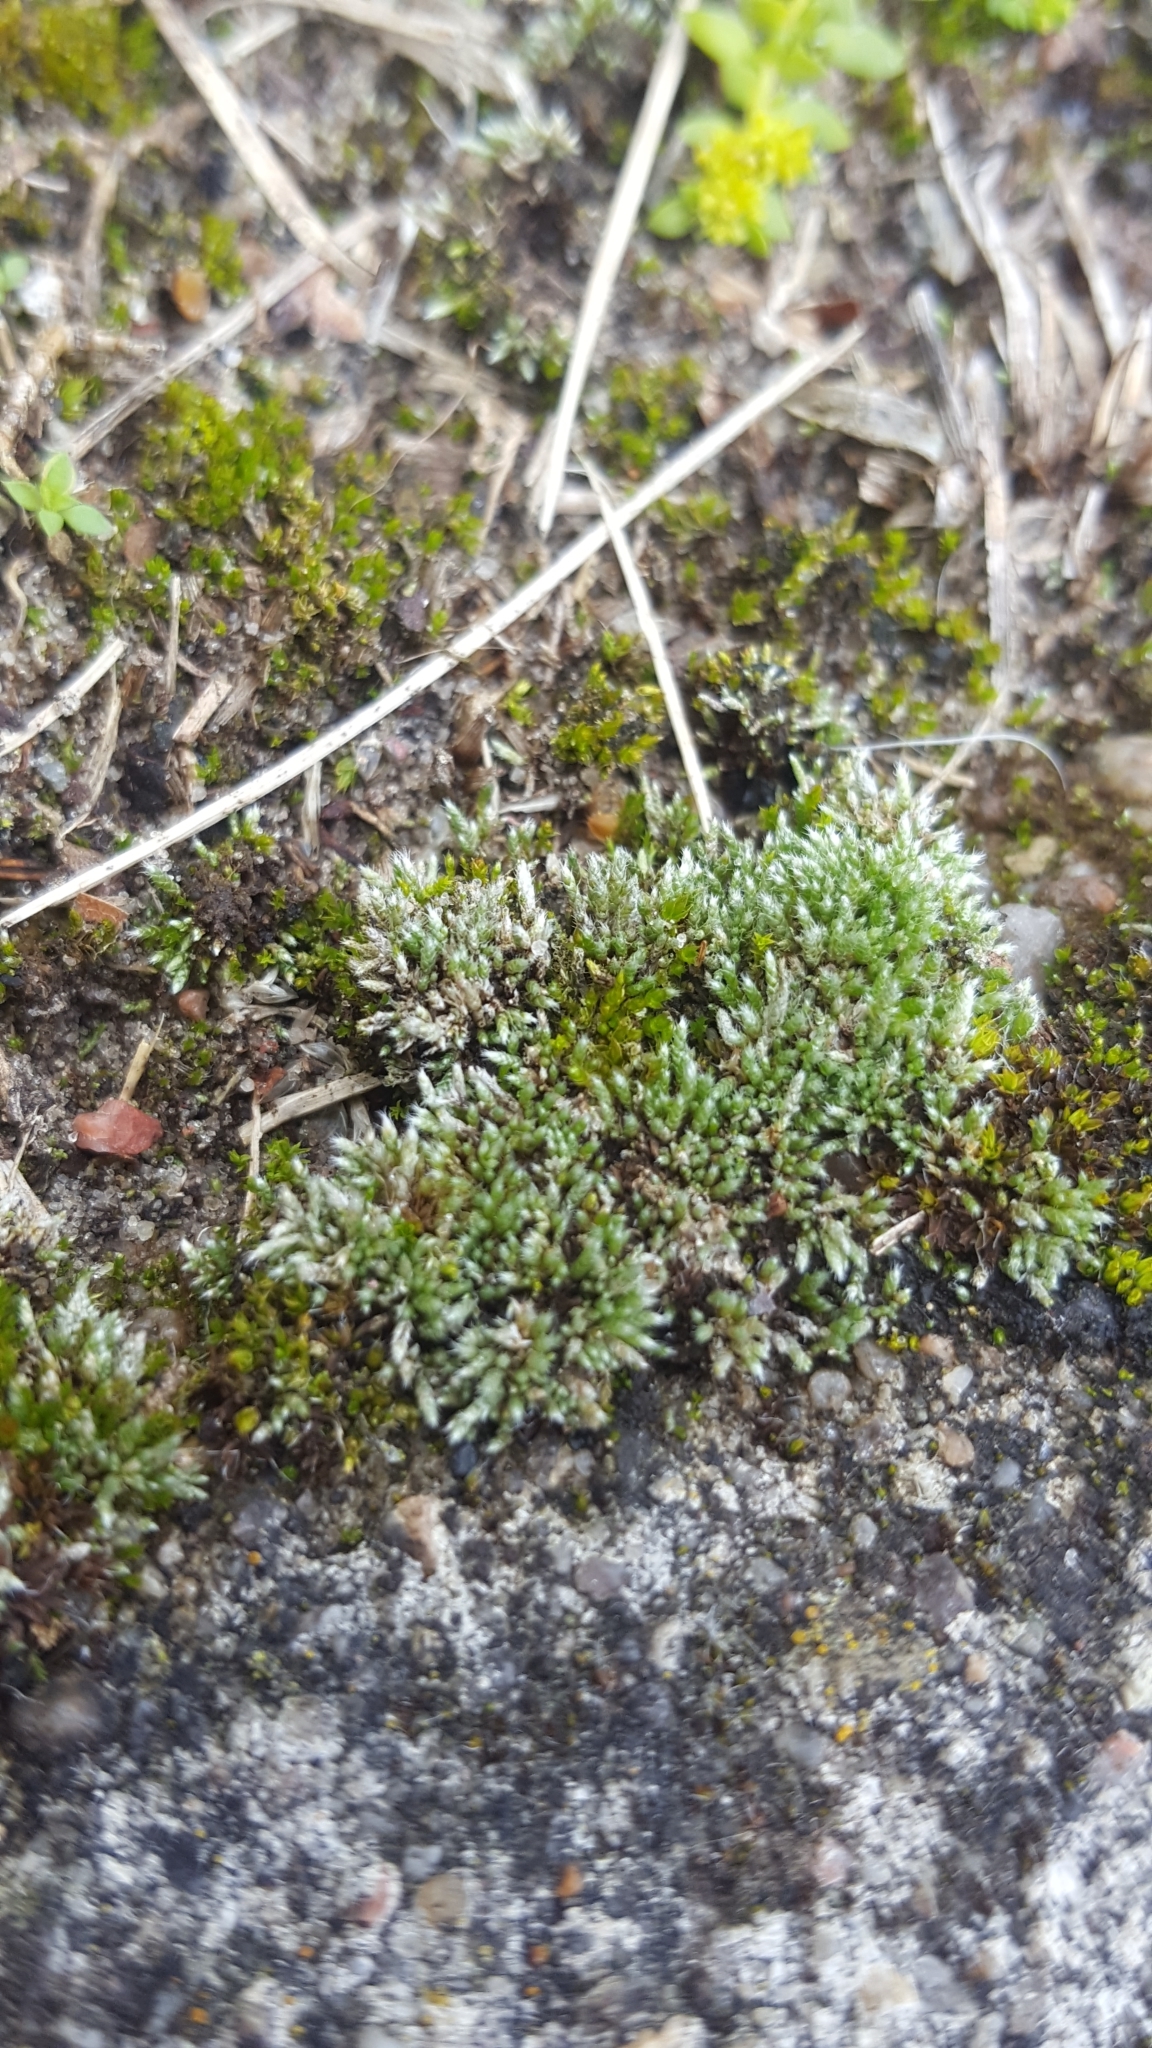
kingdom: Plantae
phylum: Bryophyta
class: Bryopsida
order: Bryales
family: Bryaceae
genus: Bryum
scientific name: Bryum argenteum
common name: Silver-moss
